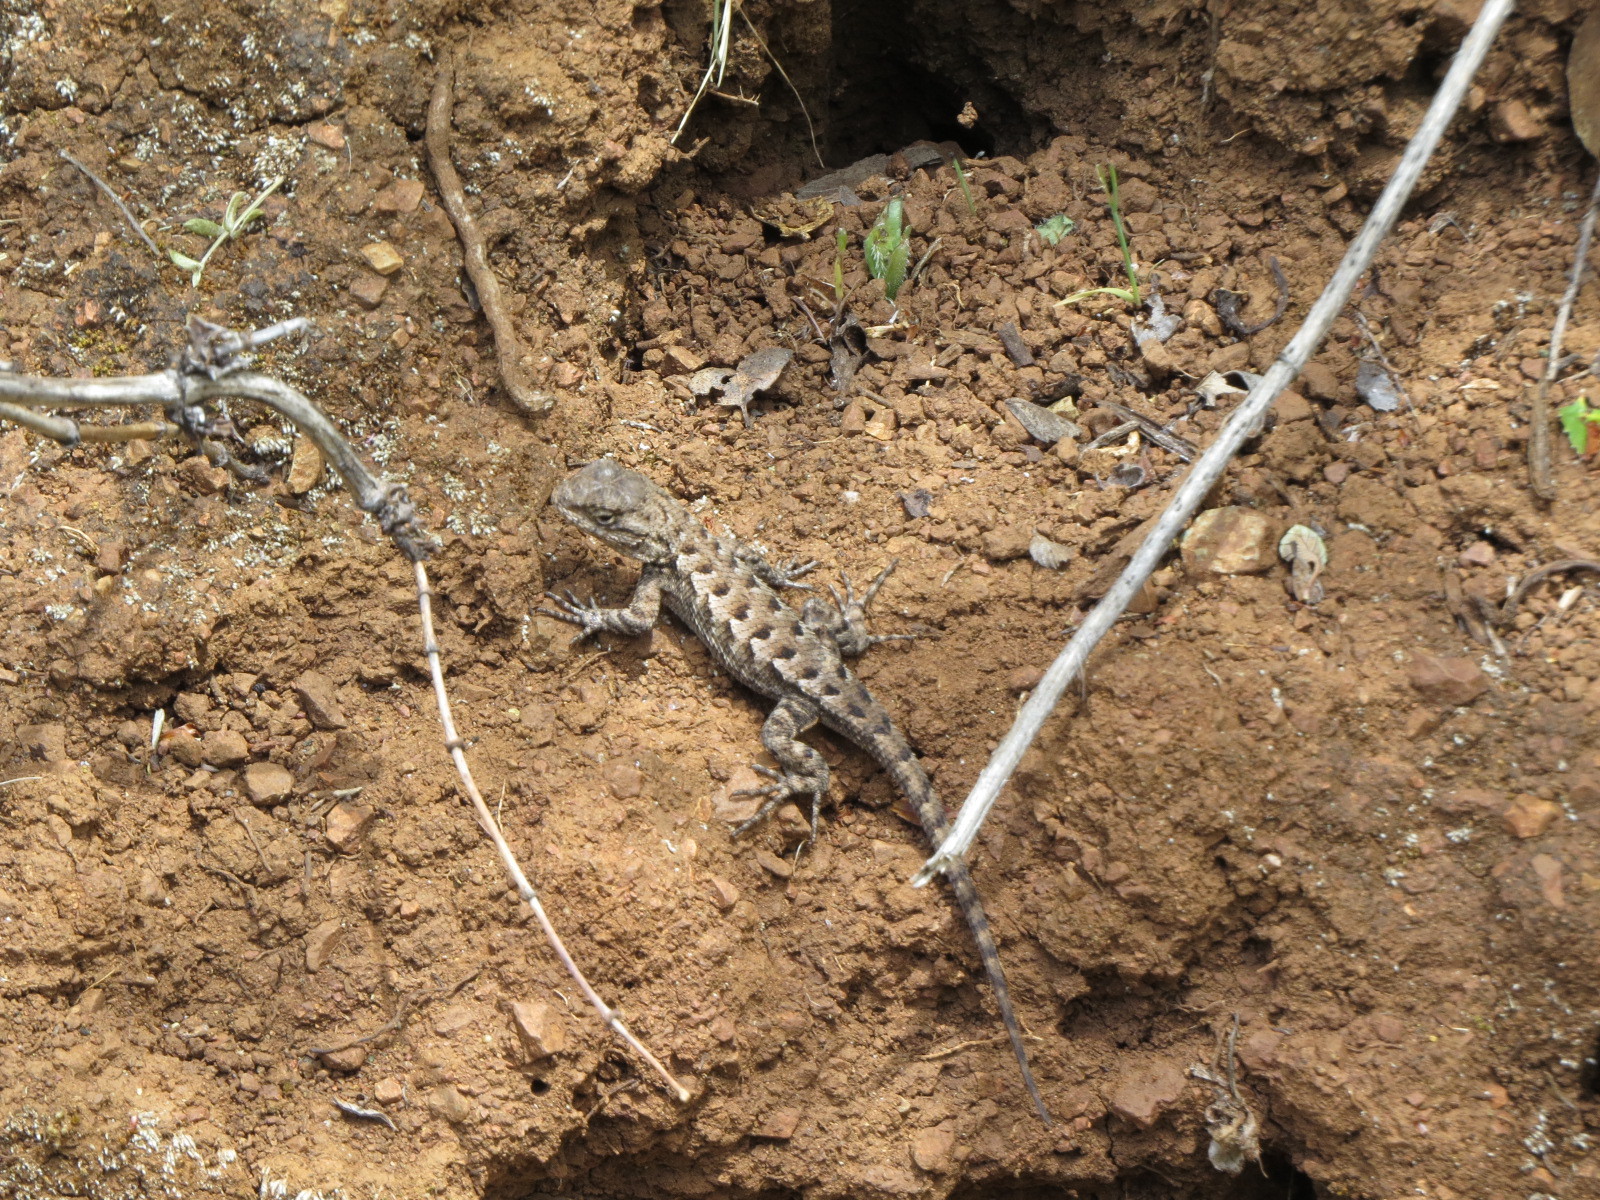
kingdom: Animalia
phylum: Chordata
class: Squamata
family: Phrynosomatidae
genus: Sceloporus
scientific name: Sceloporus occidentalis
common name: Western fence lizard
